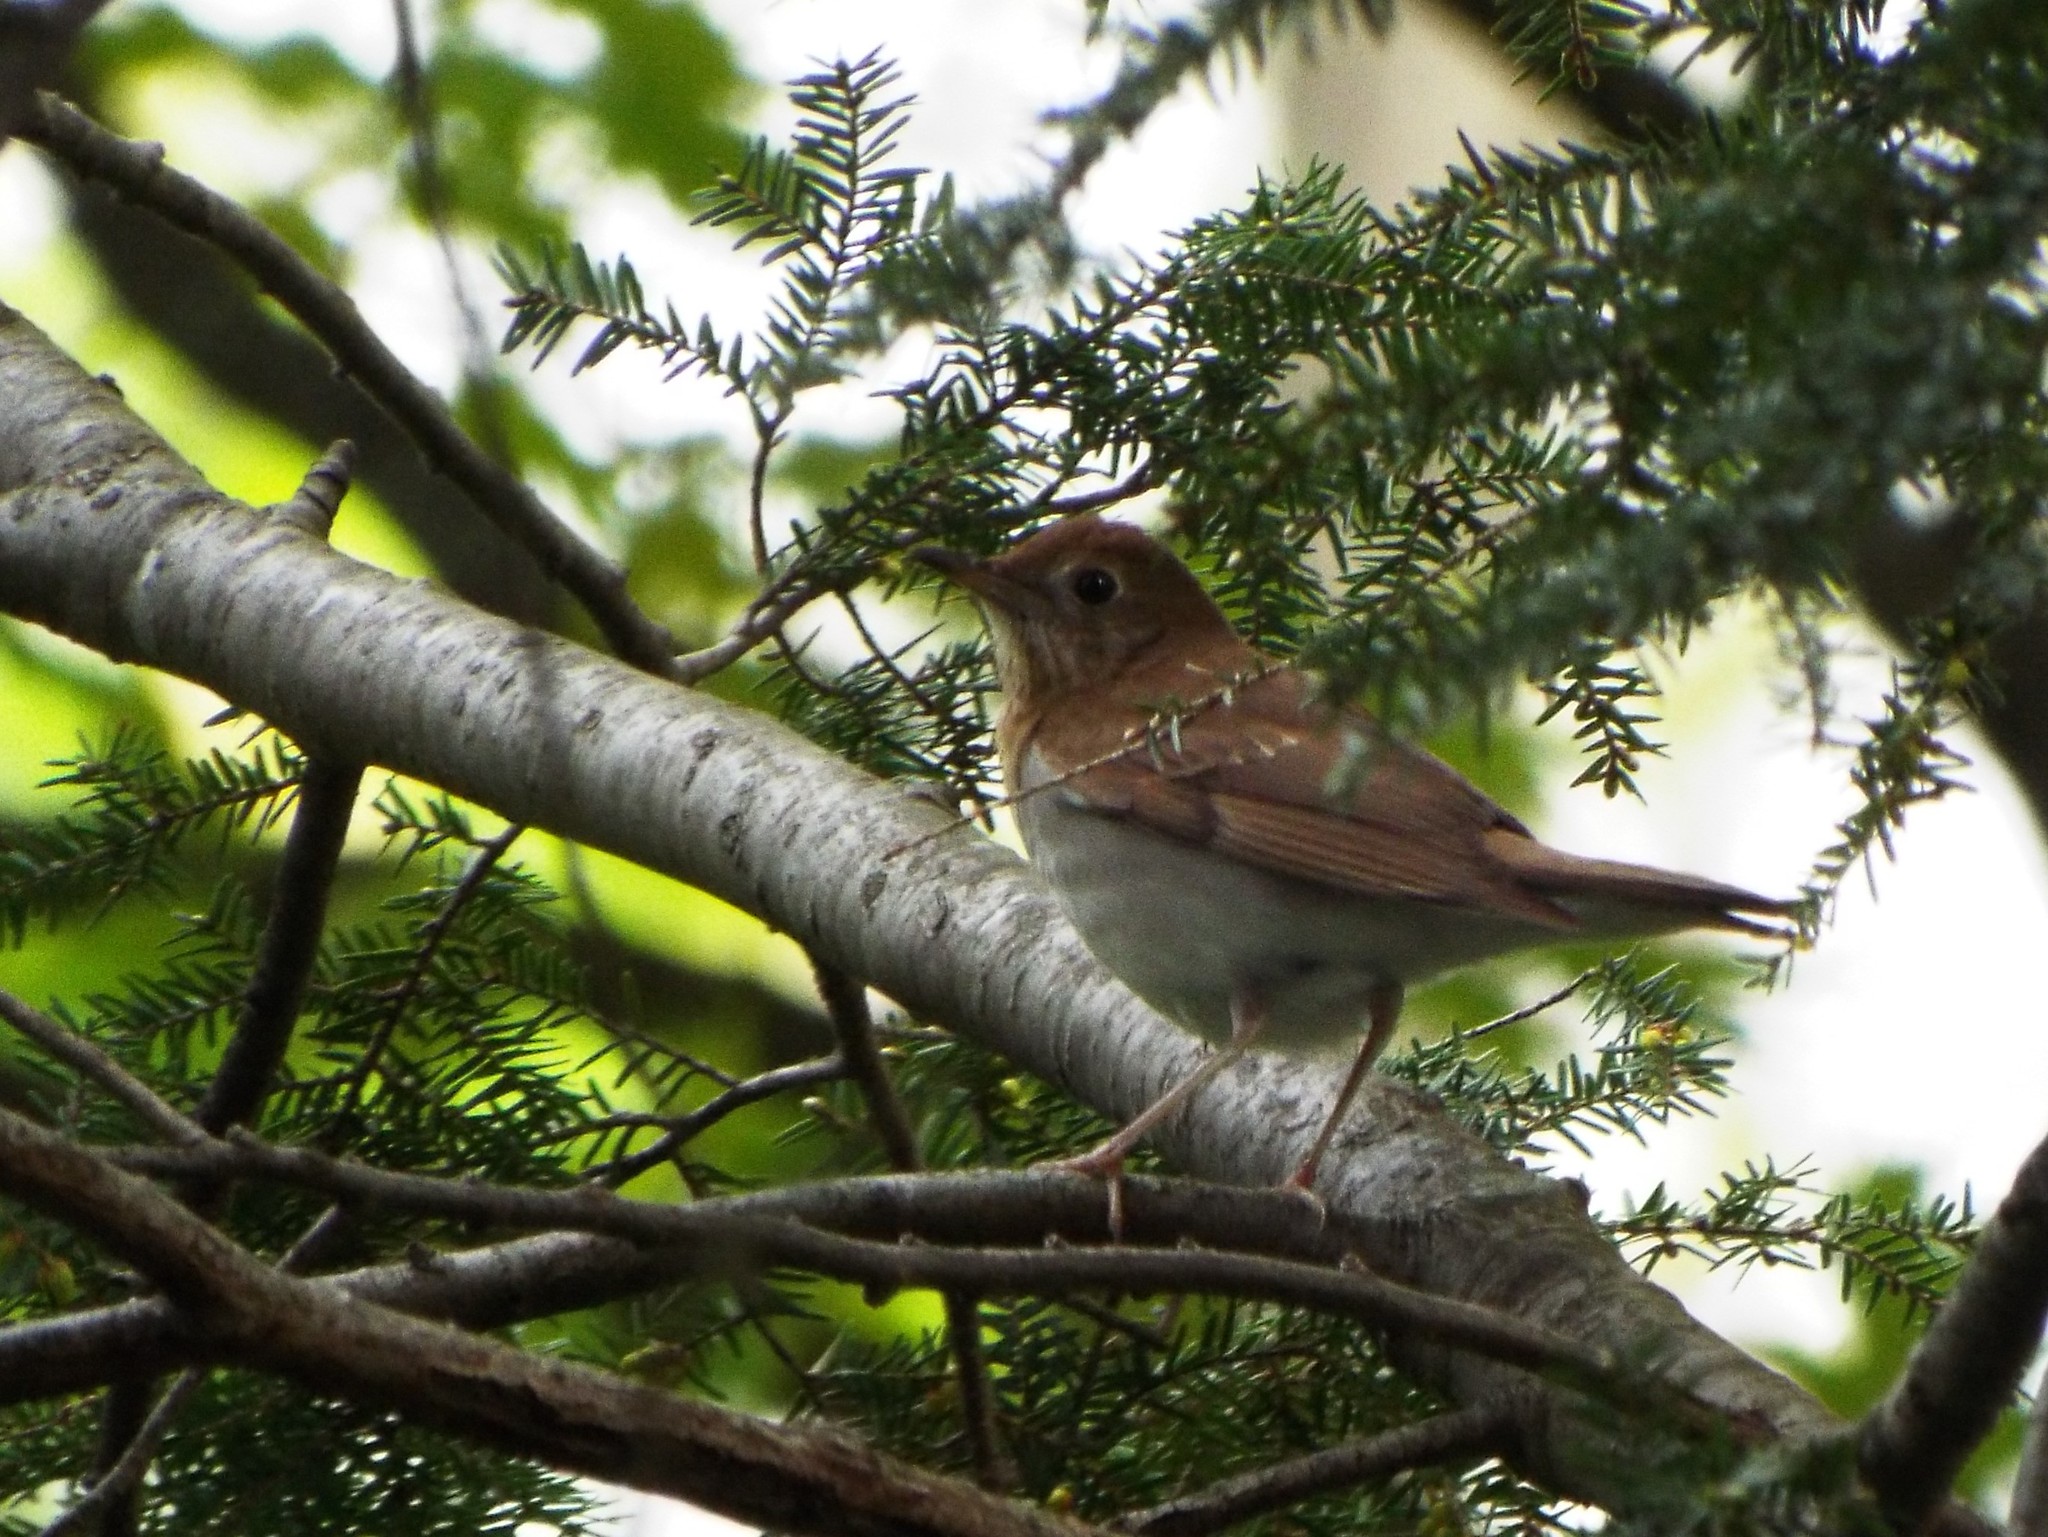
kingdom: Animalia
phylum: Chordata
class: Aves
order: Passeriformes
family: Turdidae
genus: Catharus
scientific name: Catharus fuscescens
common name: Veery
